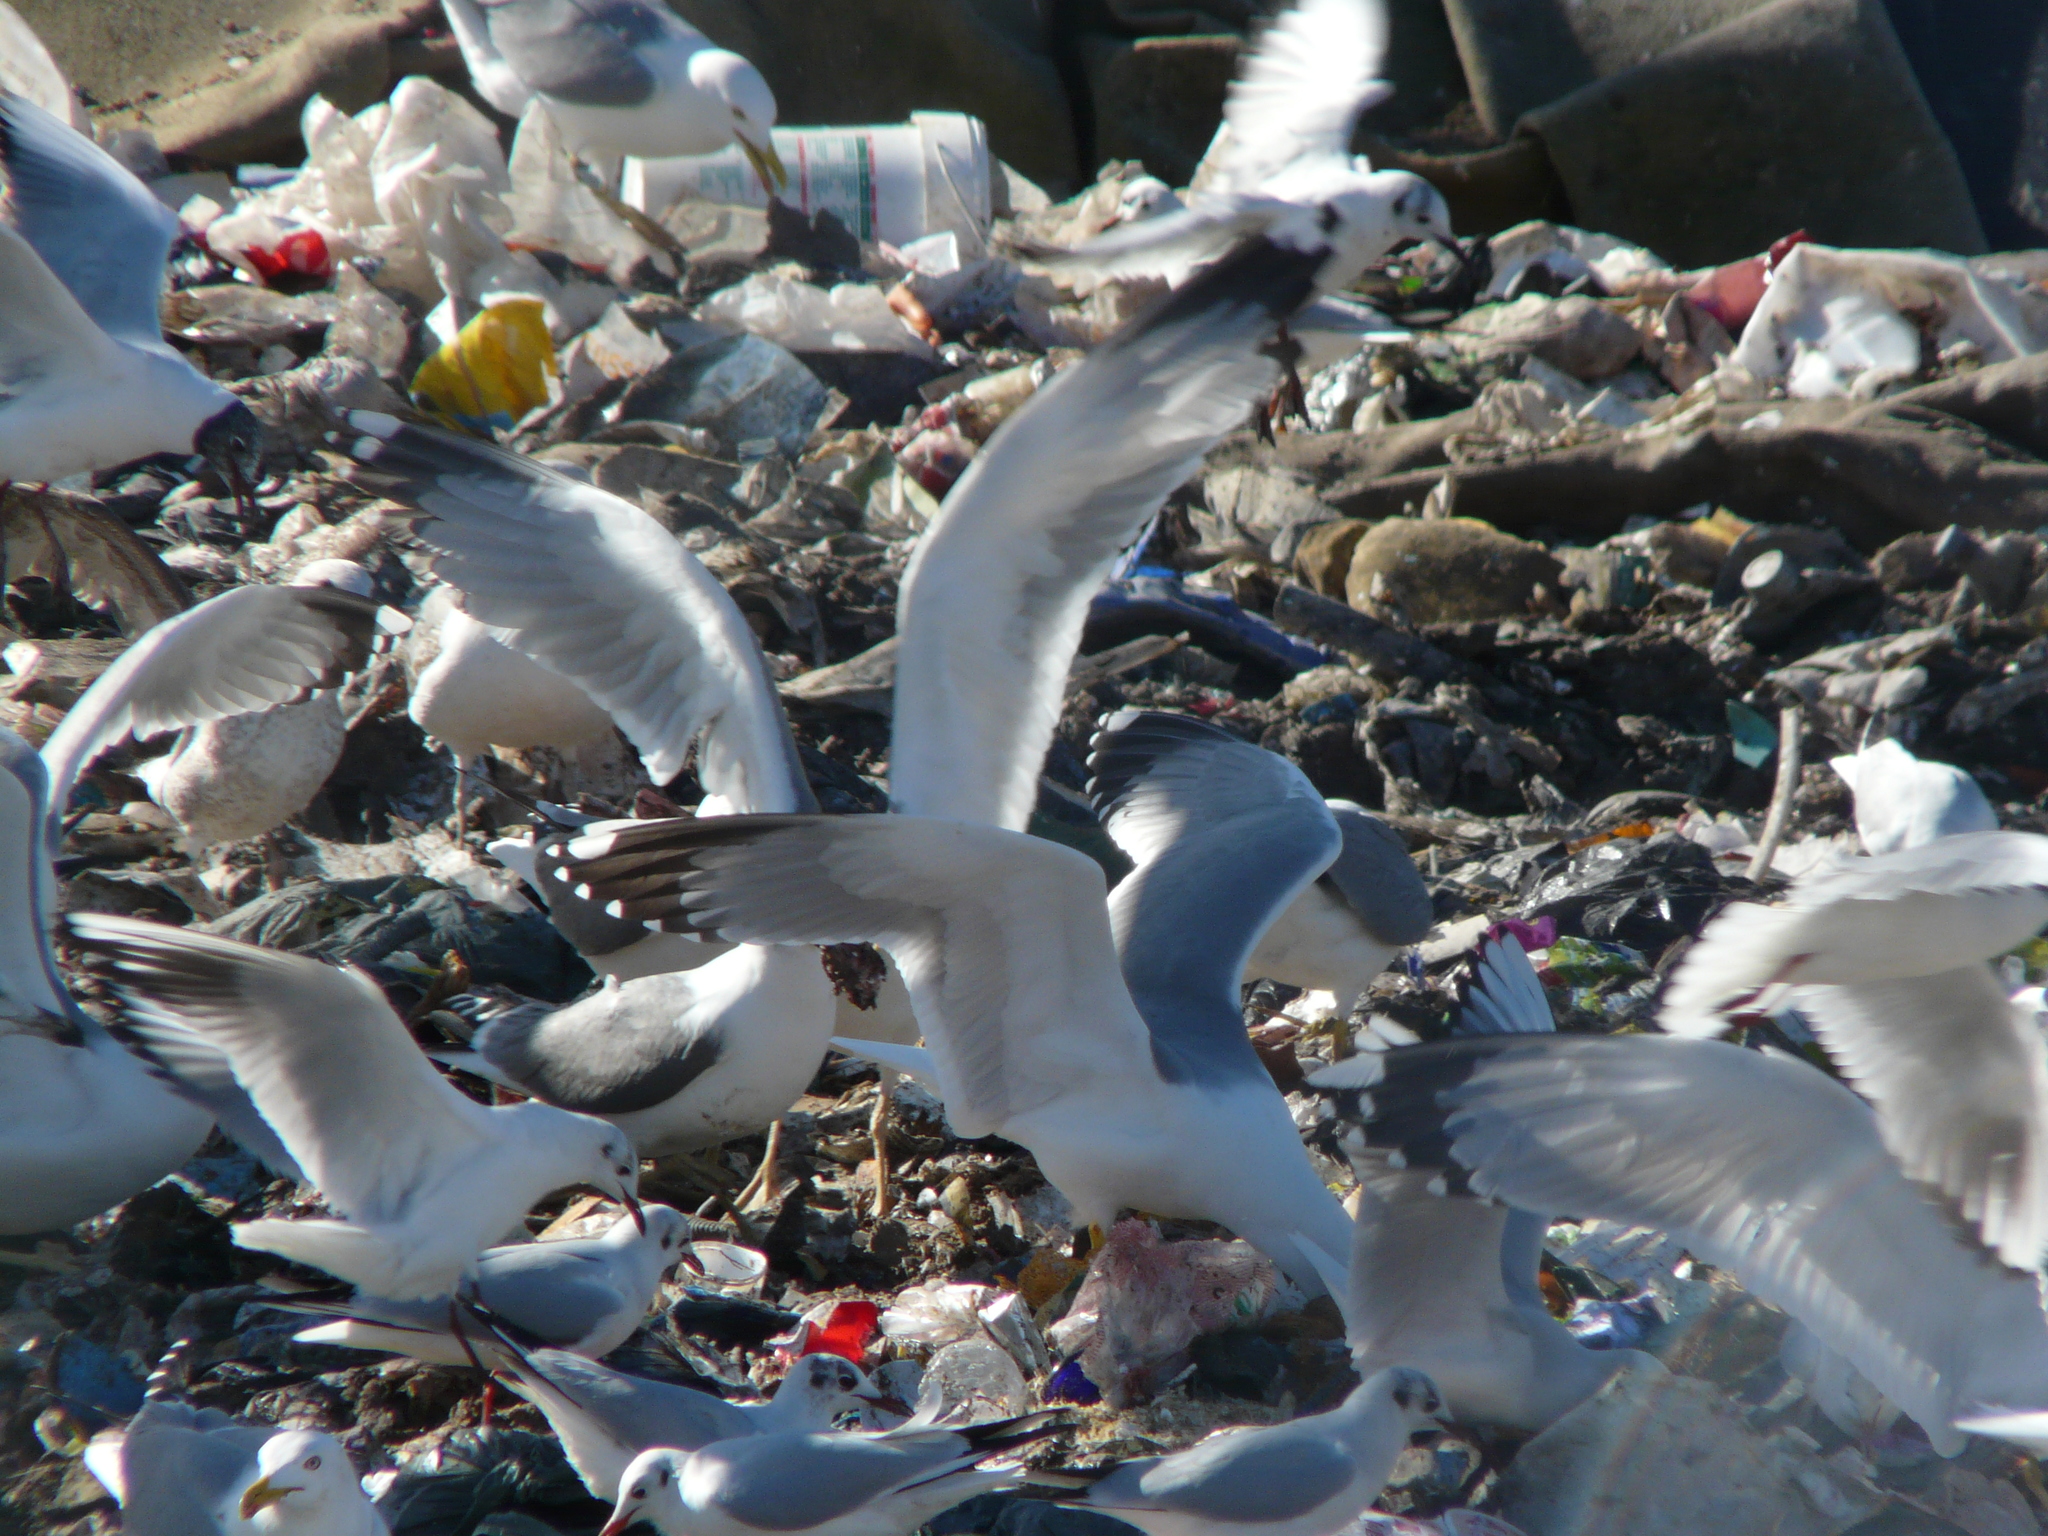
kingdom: Animalia
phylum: Chordata
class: Aves
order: Charadriiformes
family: Laridae
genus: Larus
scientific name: Larus michahellis
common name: Yellow-legged gull
